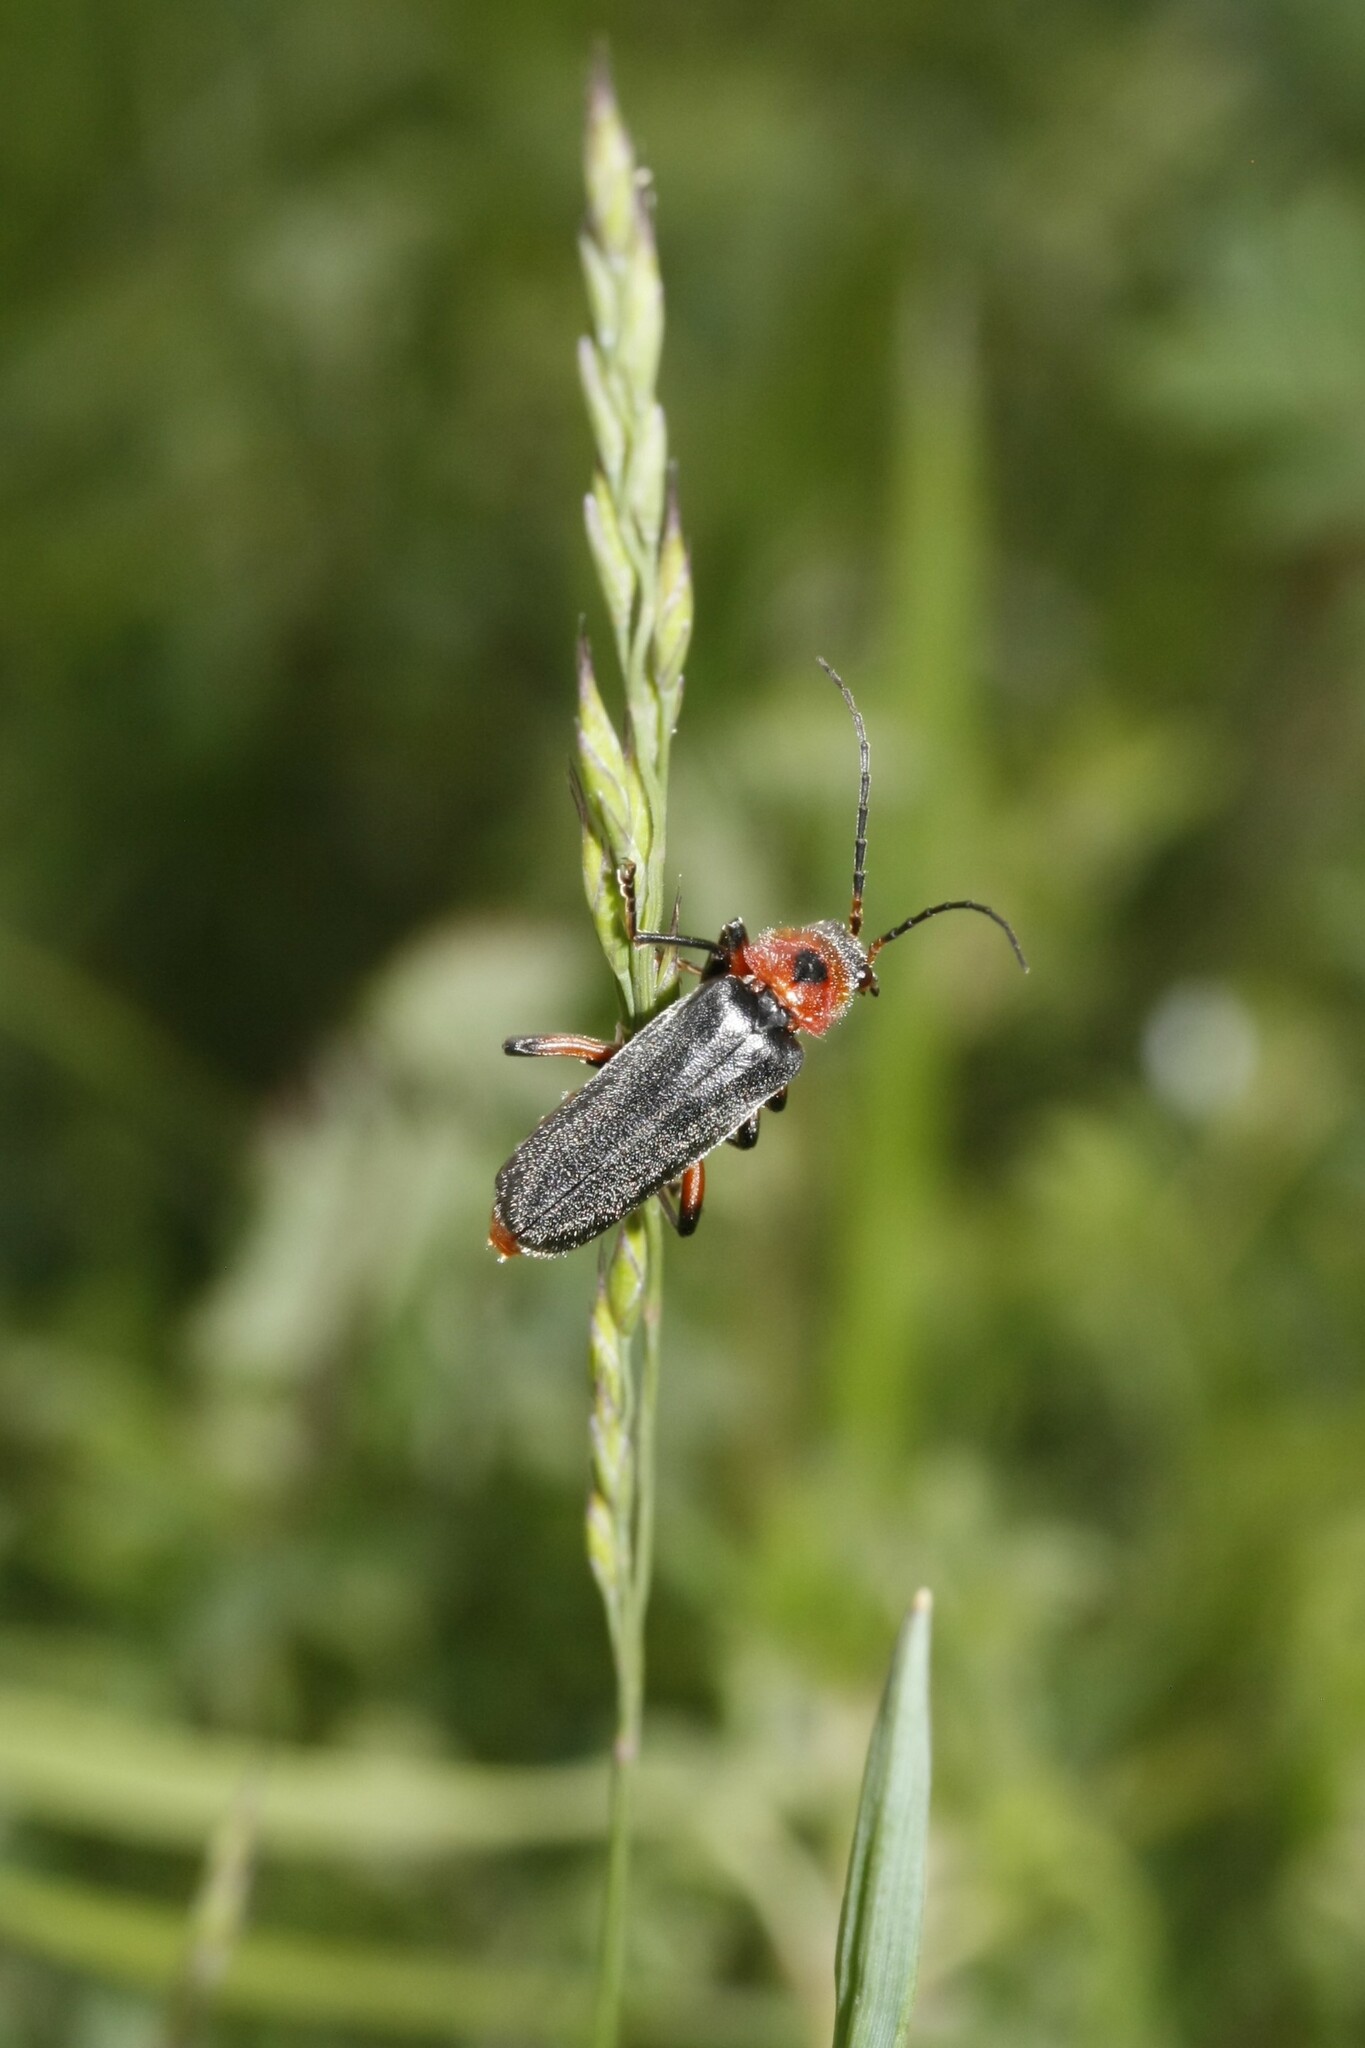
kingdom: Animalia
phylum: Arthropoda
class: Insecta
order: Coleoptera
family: Cantharidae
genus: Cantharis
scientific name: Cantharis rustica
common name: Soldier beetle
